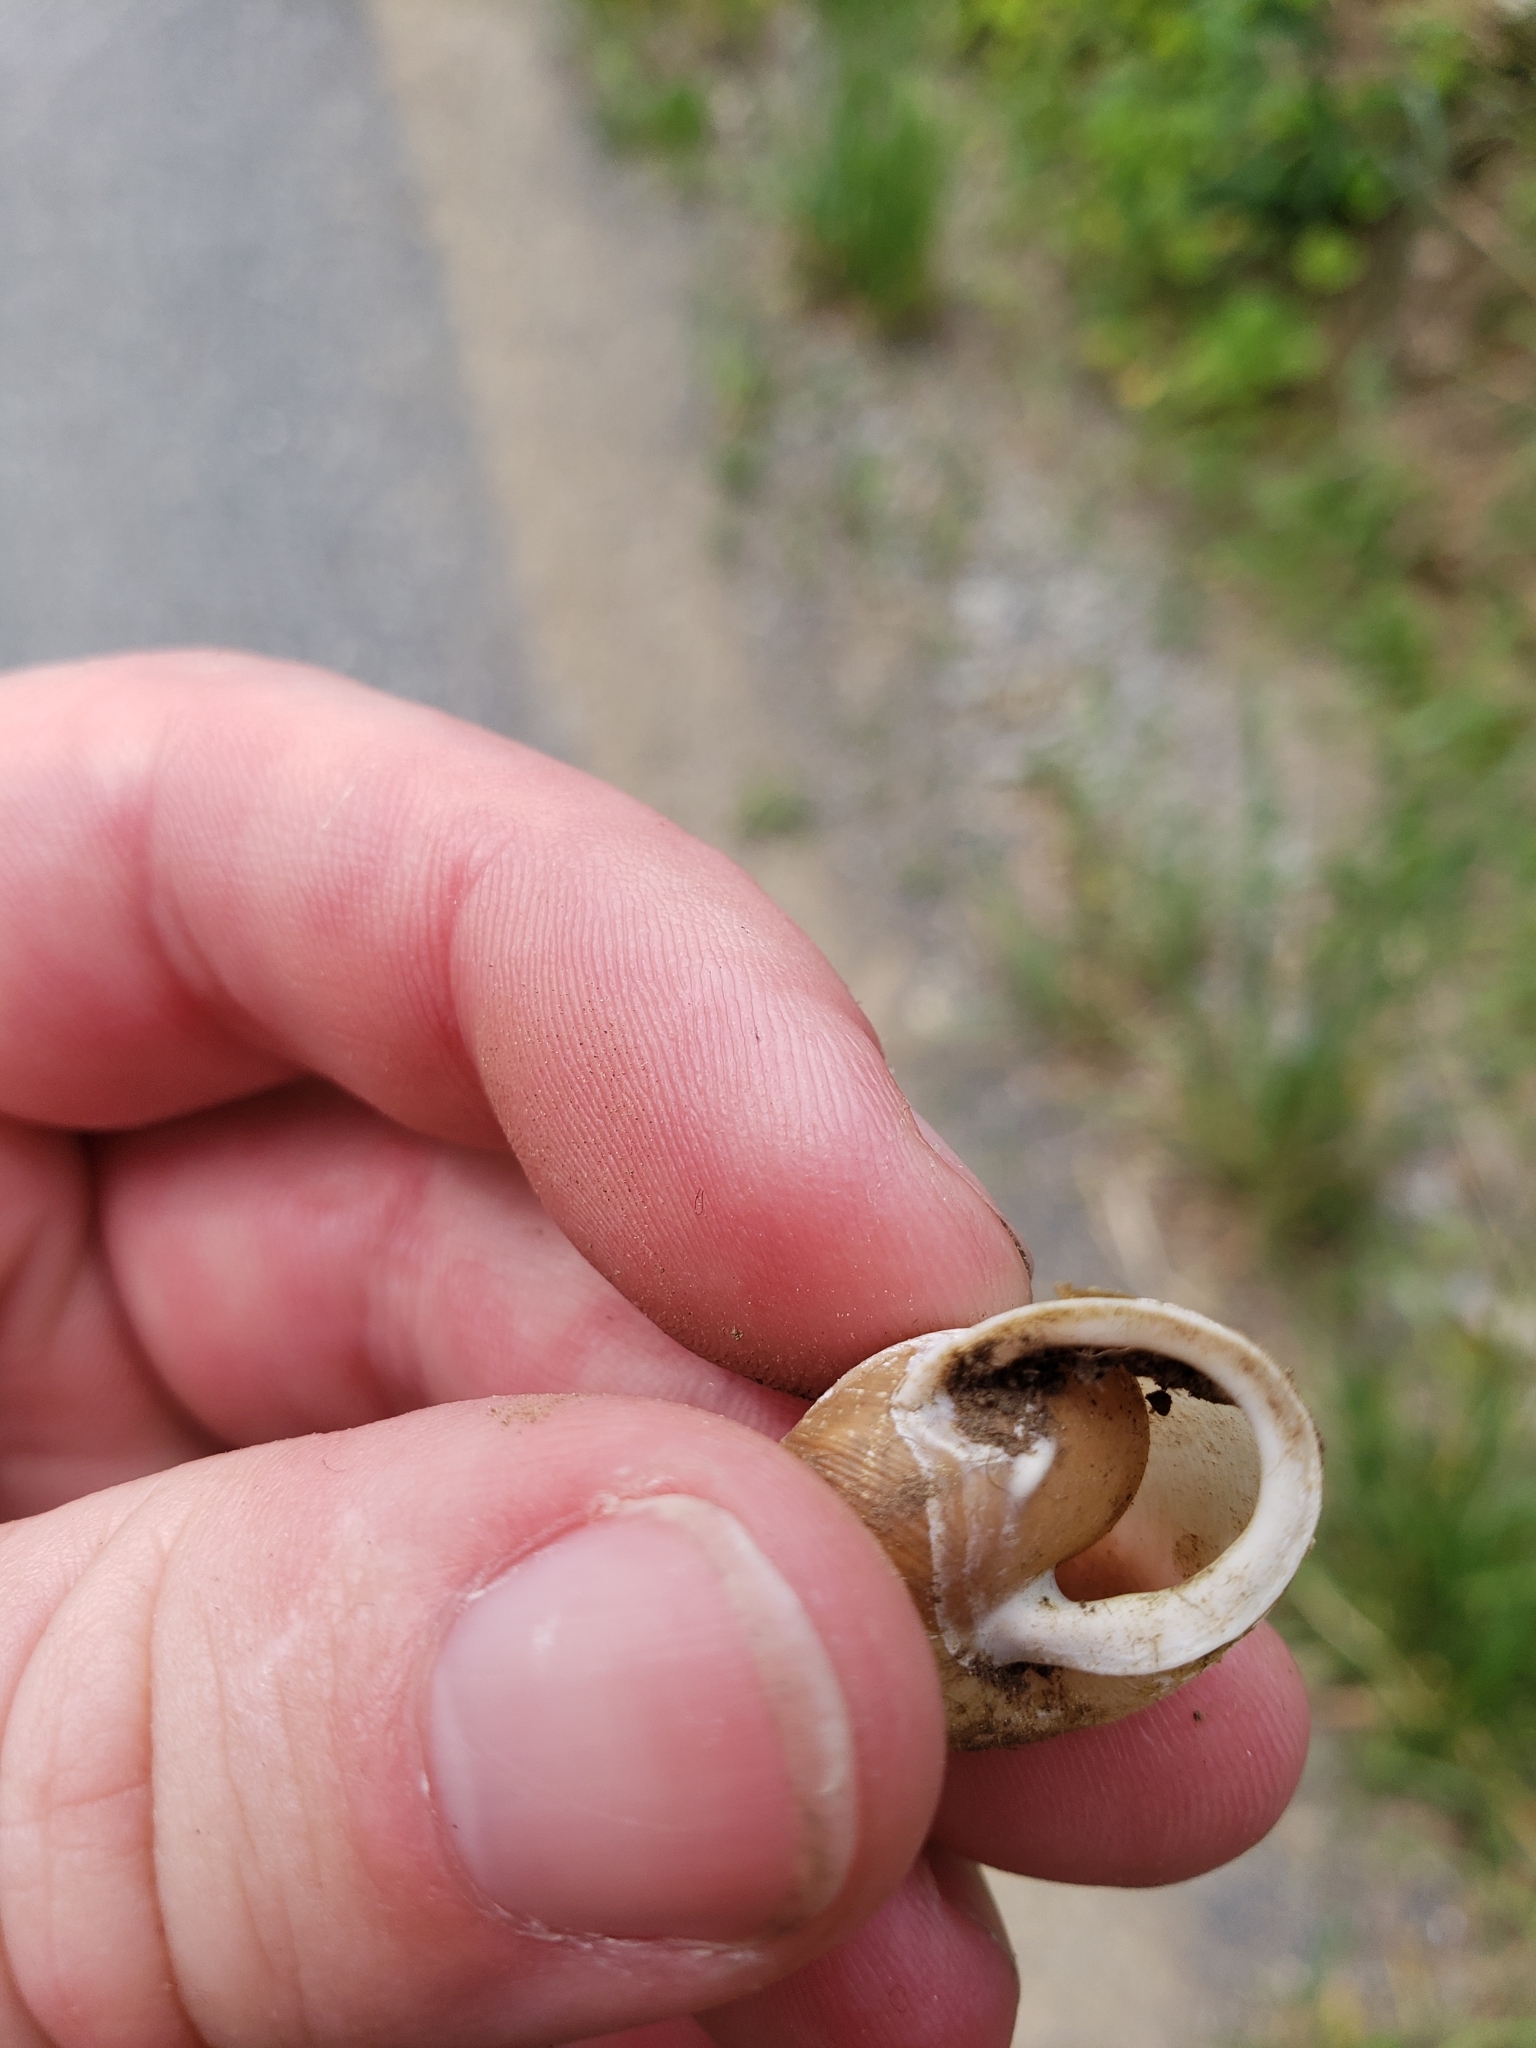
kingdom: Animalia
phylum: Mollusca
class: Gastropoda
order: Stylommatophora
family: Polygyridae
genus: Mesodon
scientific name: Mesodon thyroidus
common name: White-lip globe
